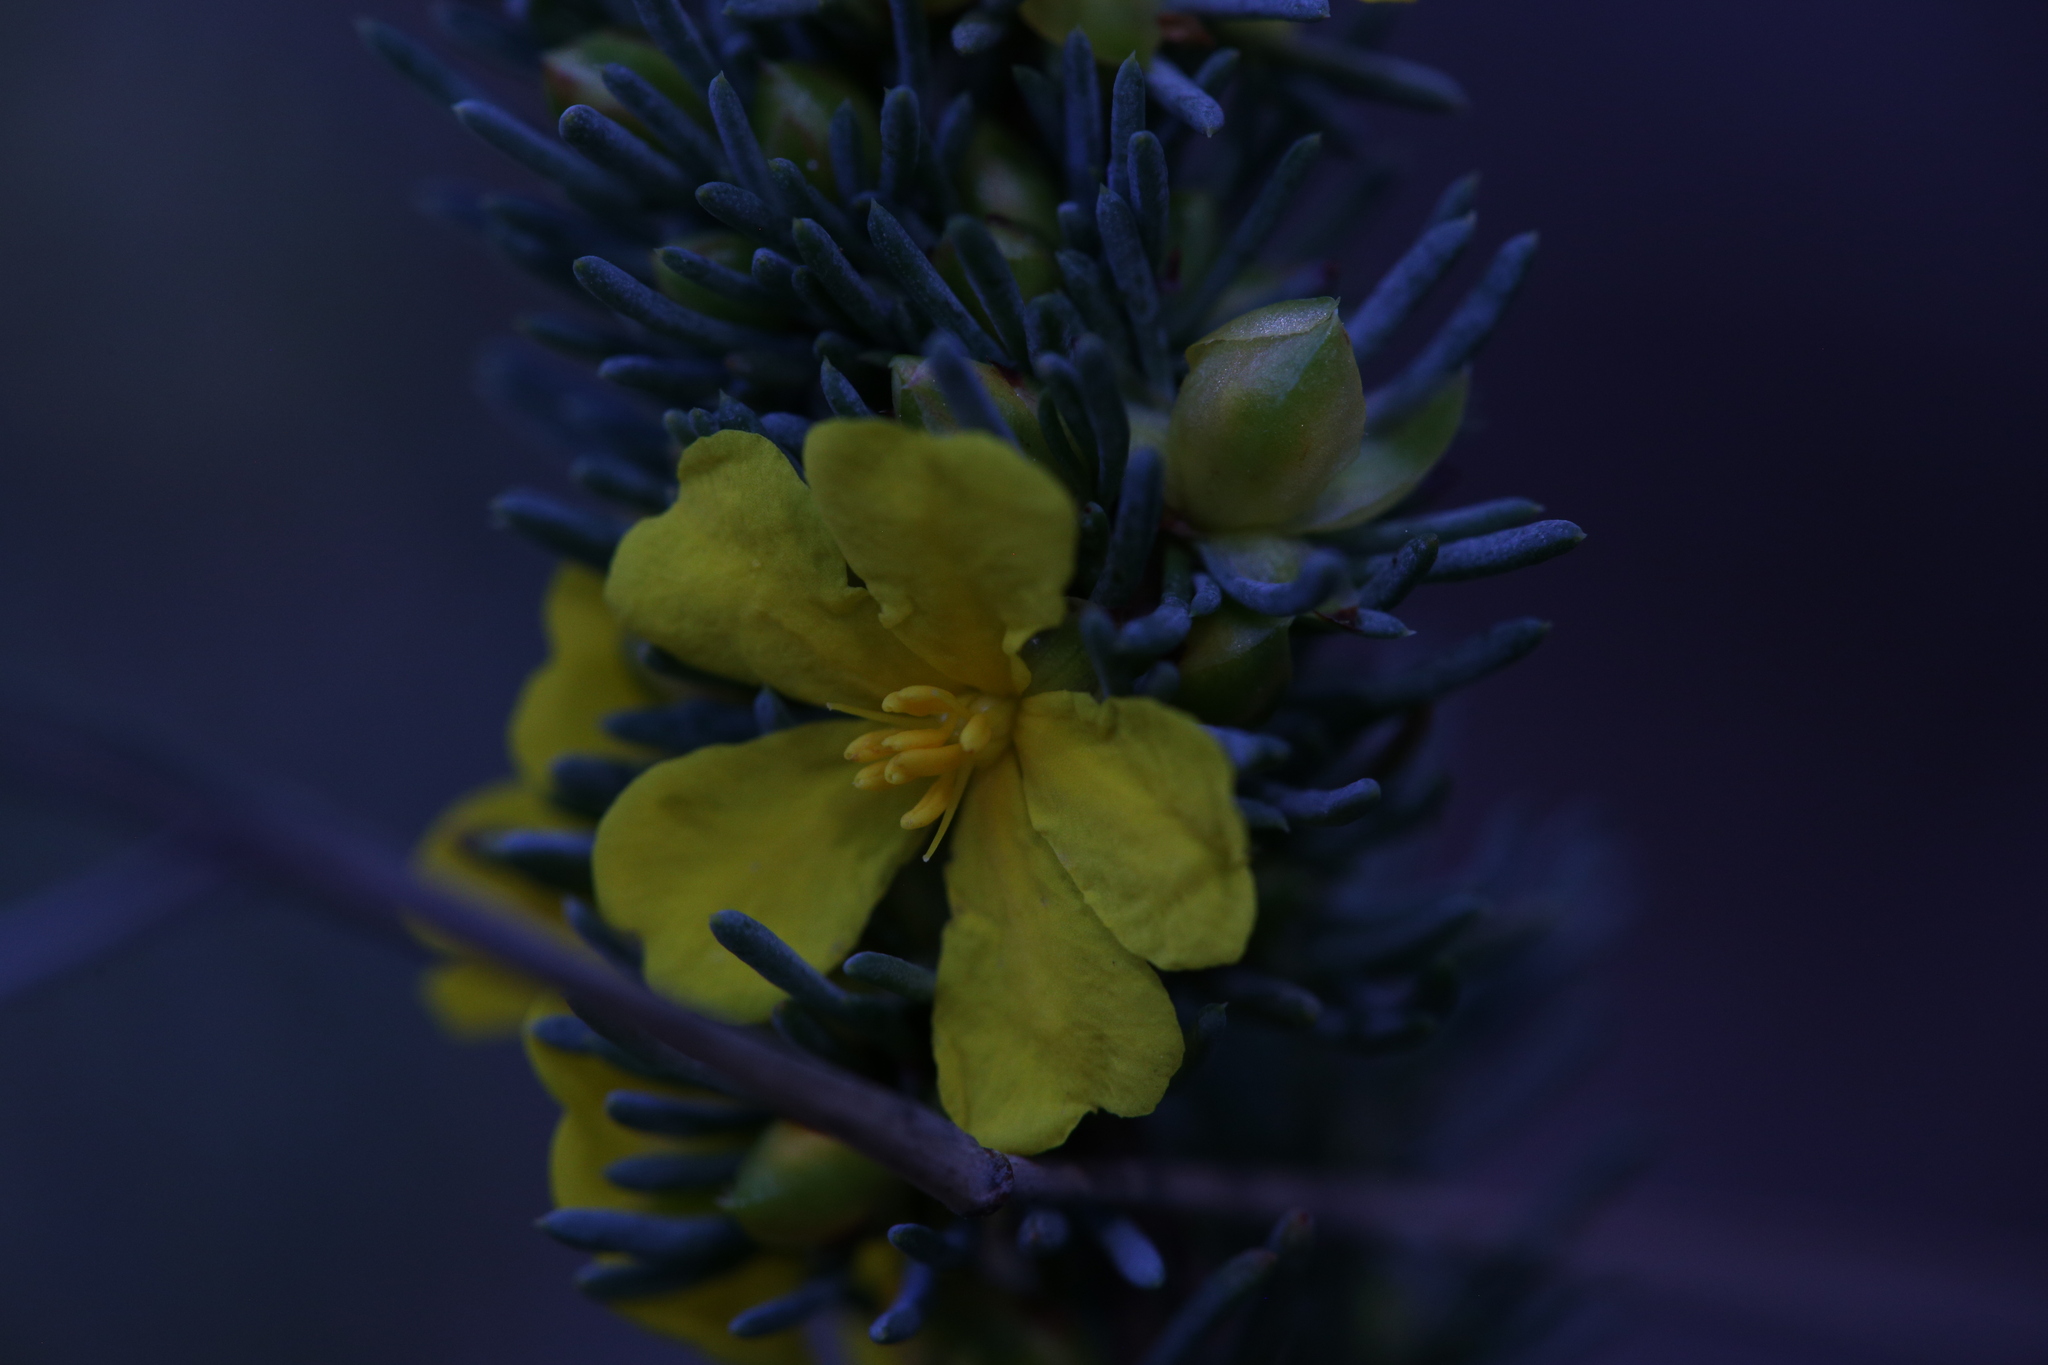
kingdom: Plantae
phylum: Tracheophyta
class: Magnoliopsida
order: Dilleniales
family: Dilleniaceae
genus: Hibbertia
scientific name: Hibbertia hemignosta
